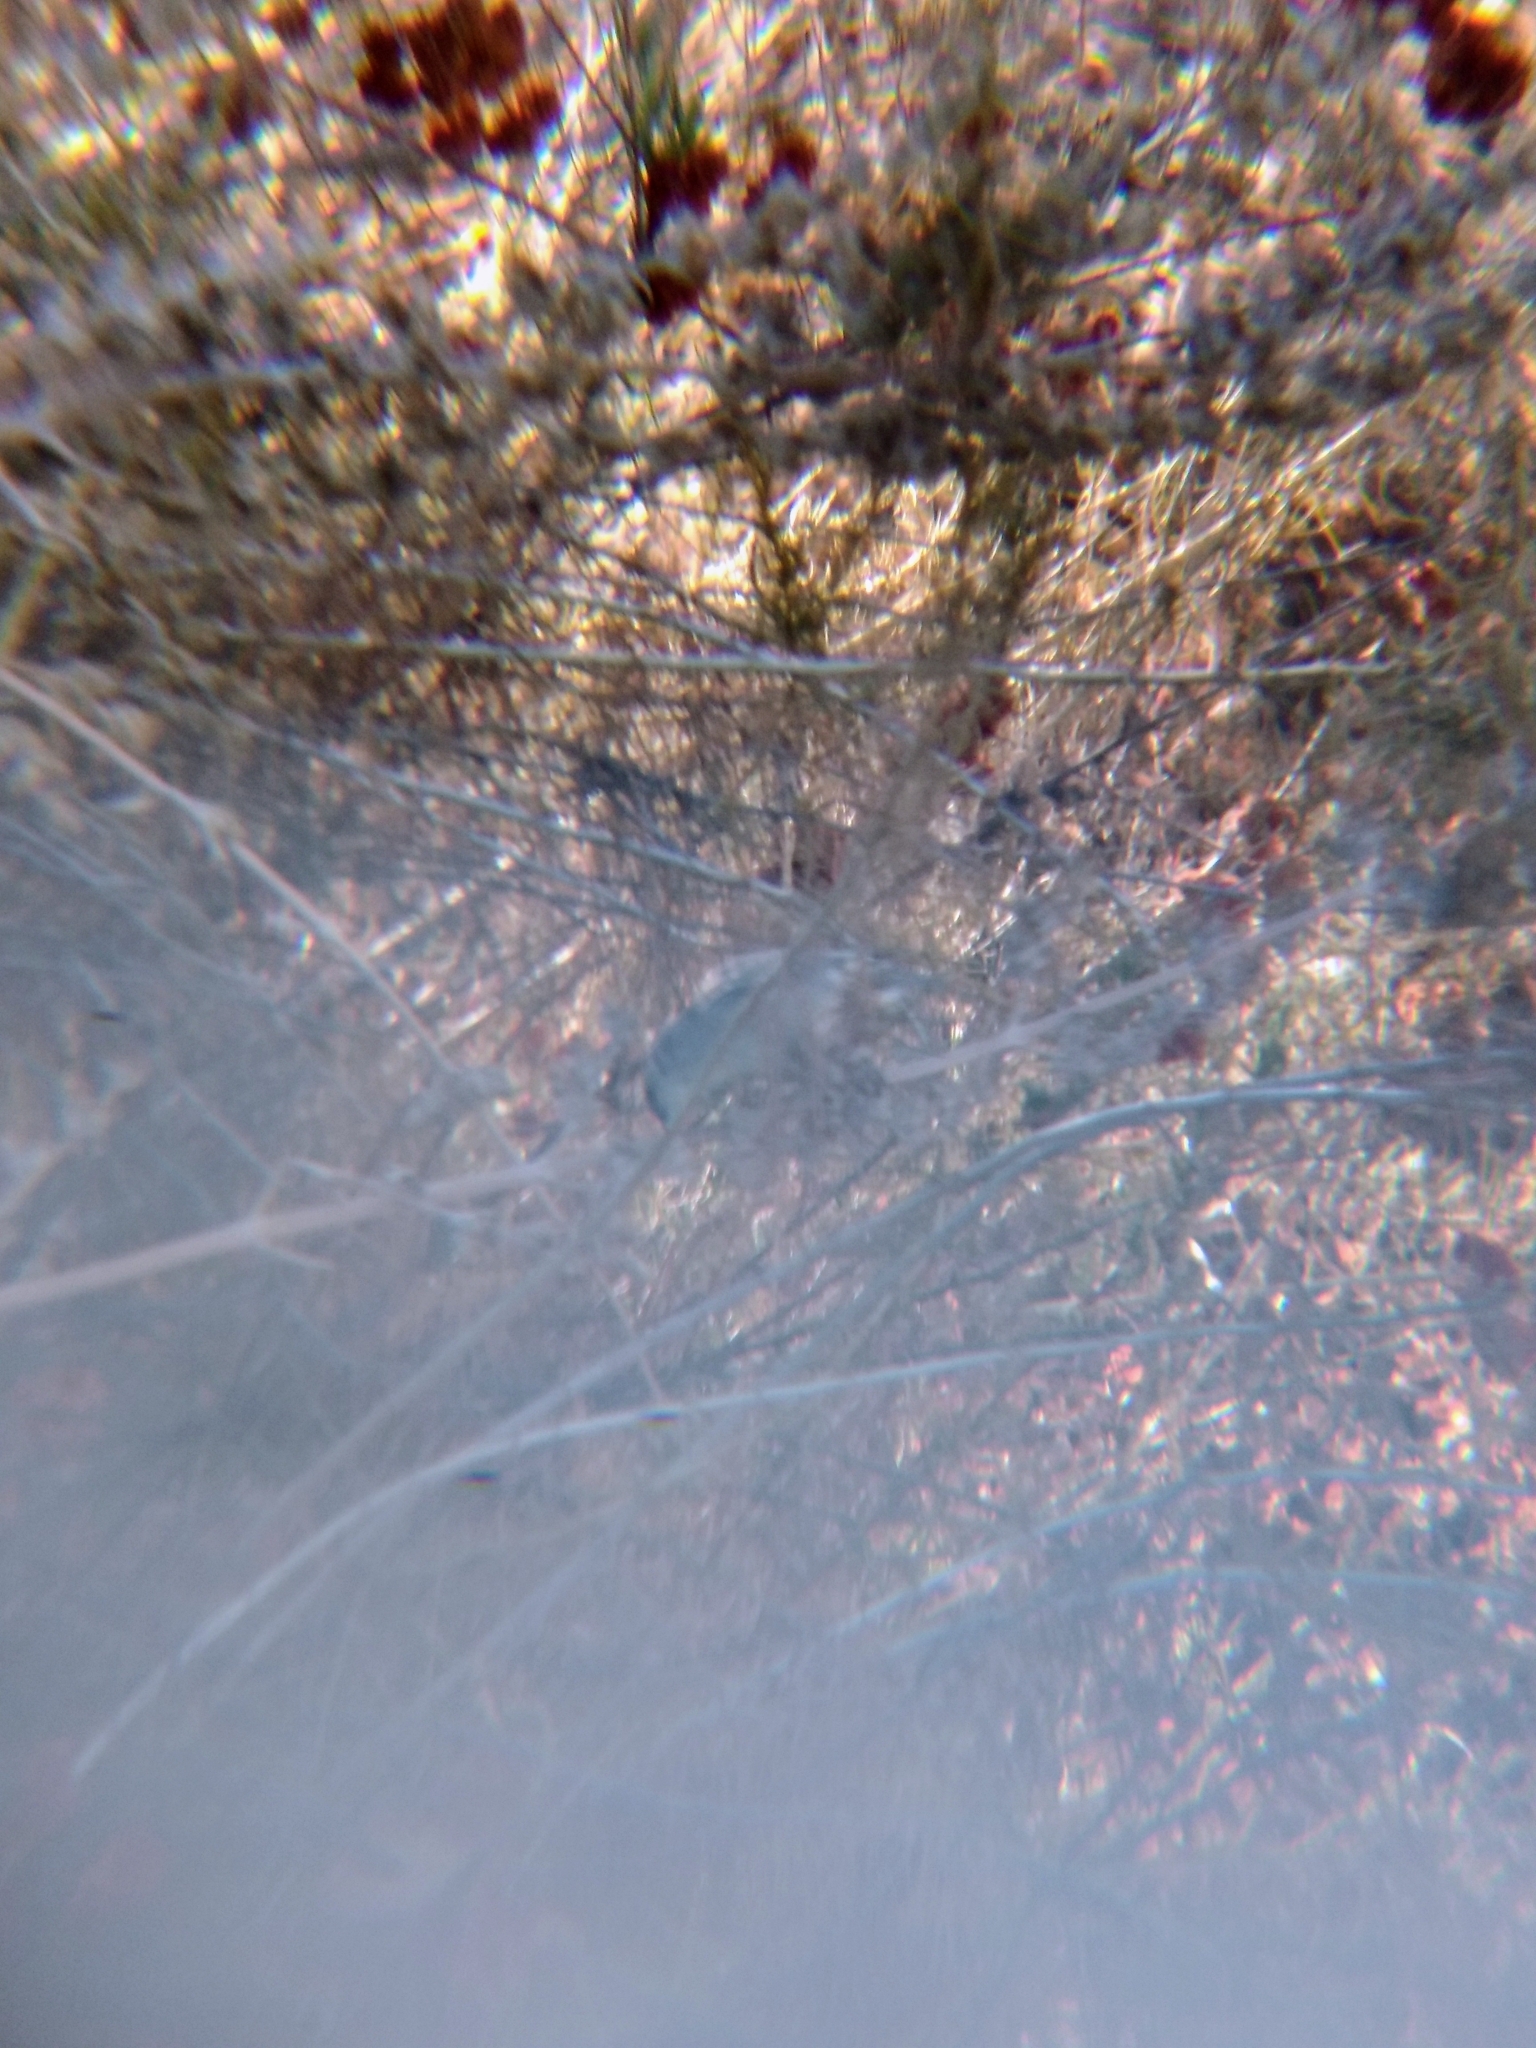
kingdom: Animalia
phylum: Chordata
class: Aves
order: Passeriformes
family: Fringillidae
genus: Spinus
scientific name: Spinus psaltria
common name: Lesser goldfinch
